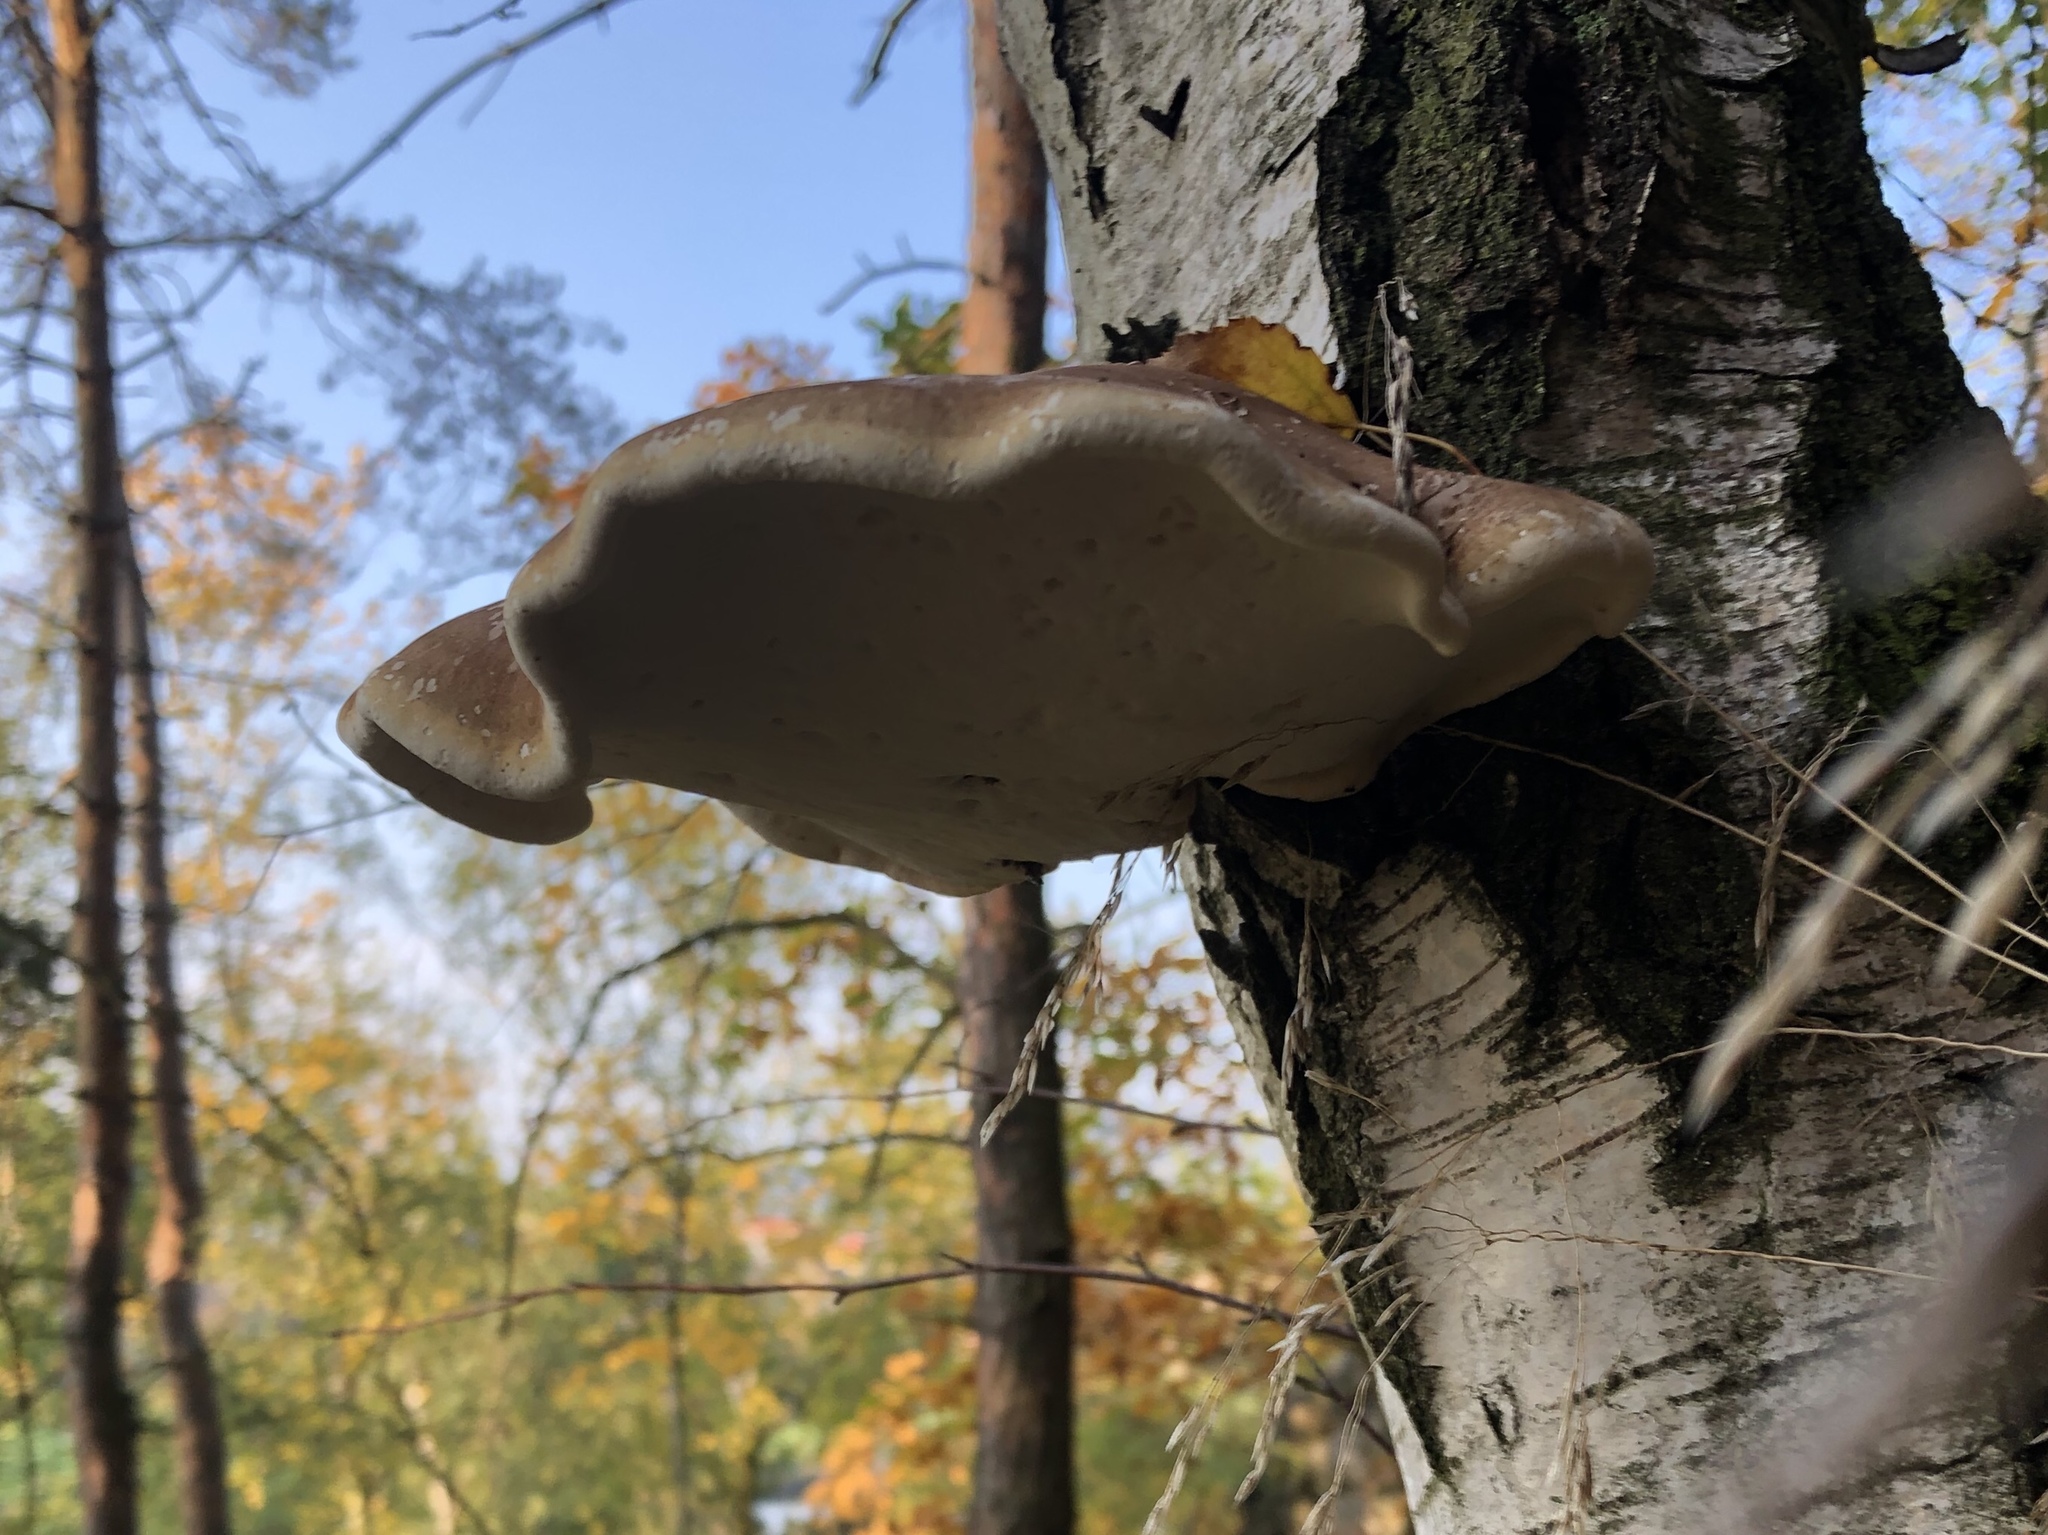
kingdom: Fungi
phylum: Basidiomycota
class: Agaricomycetes
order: Polyporales
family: Fomitopsidaceae
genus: Fomitopsis
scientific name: Fomitopsis betulina
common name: Birch polypore
